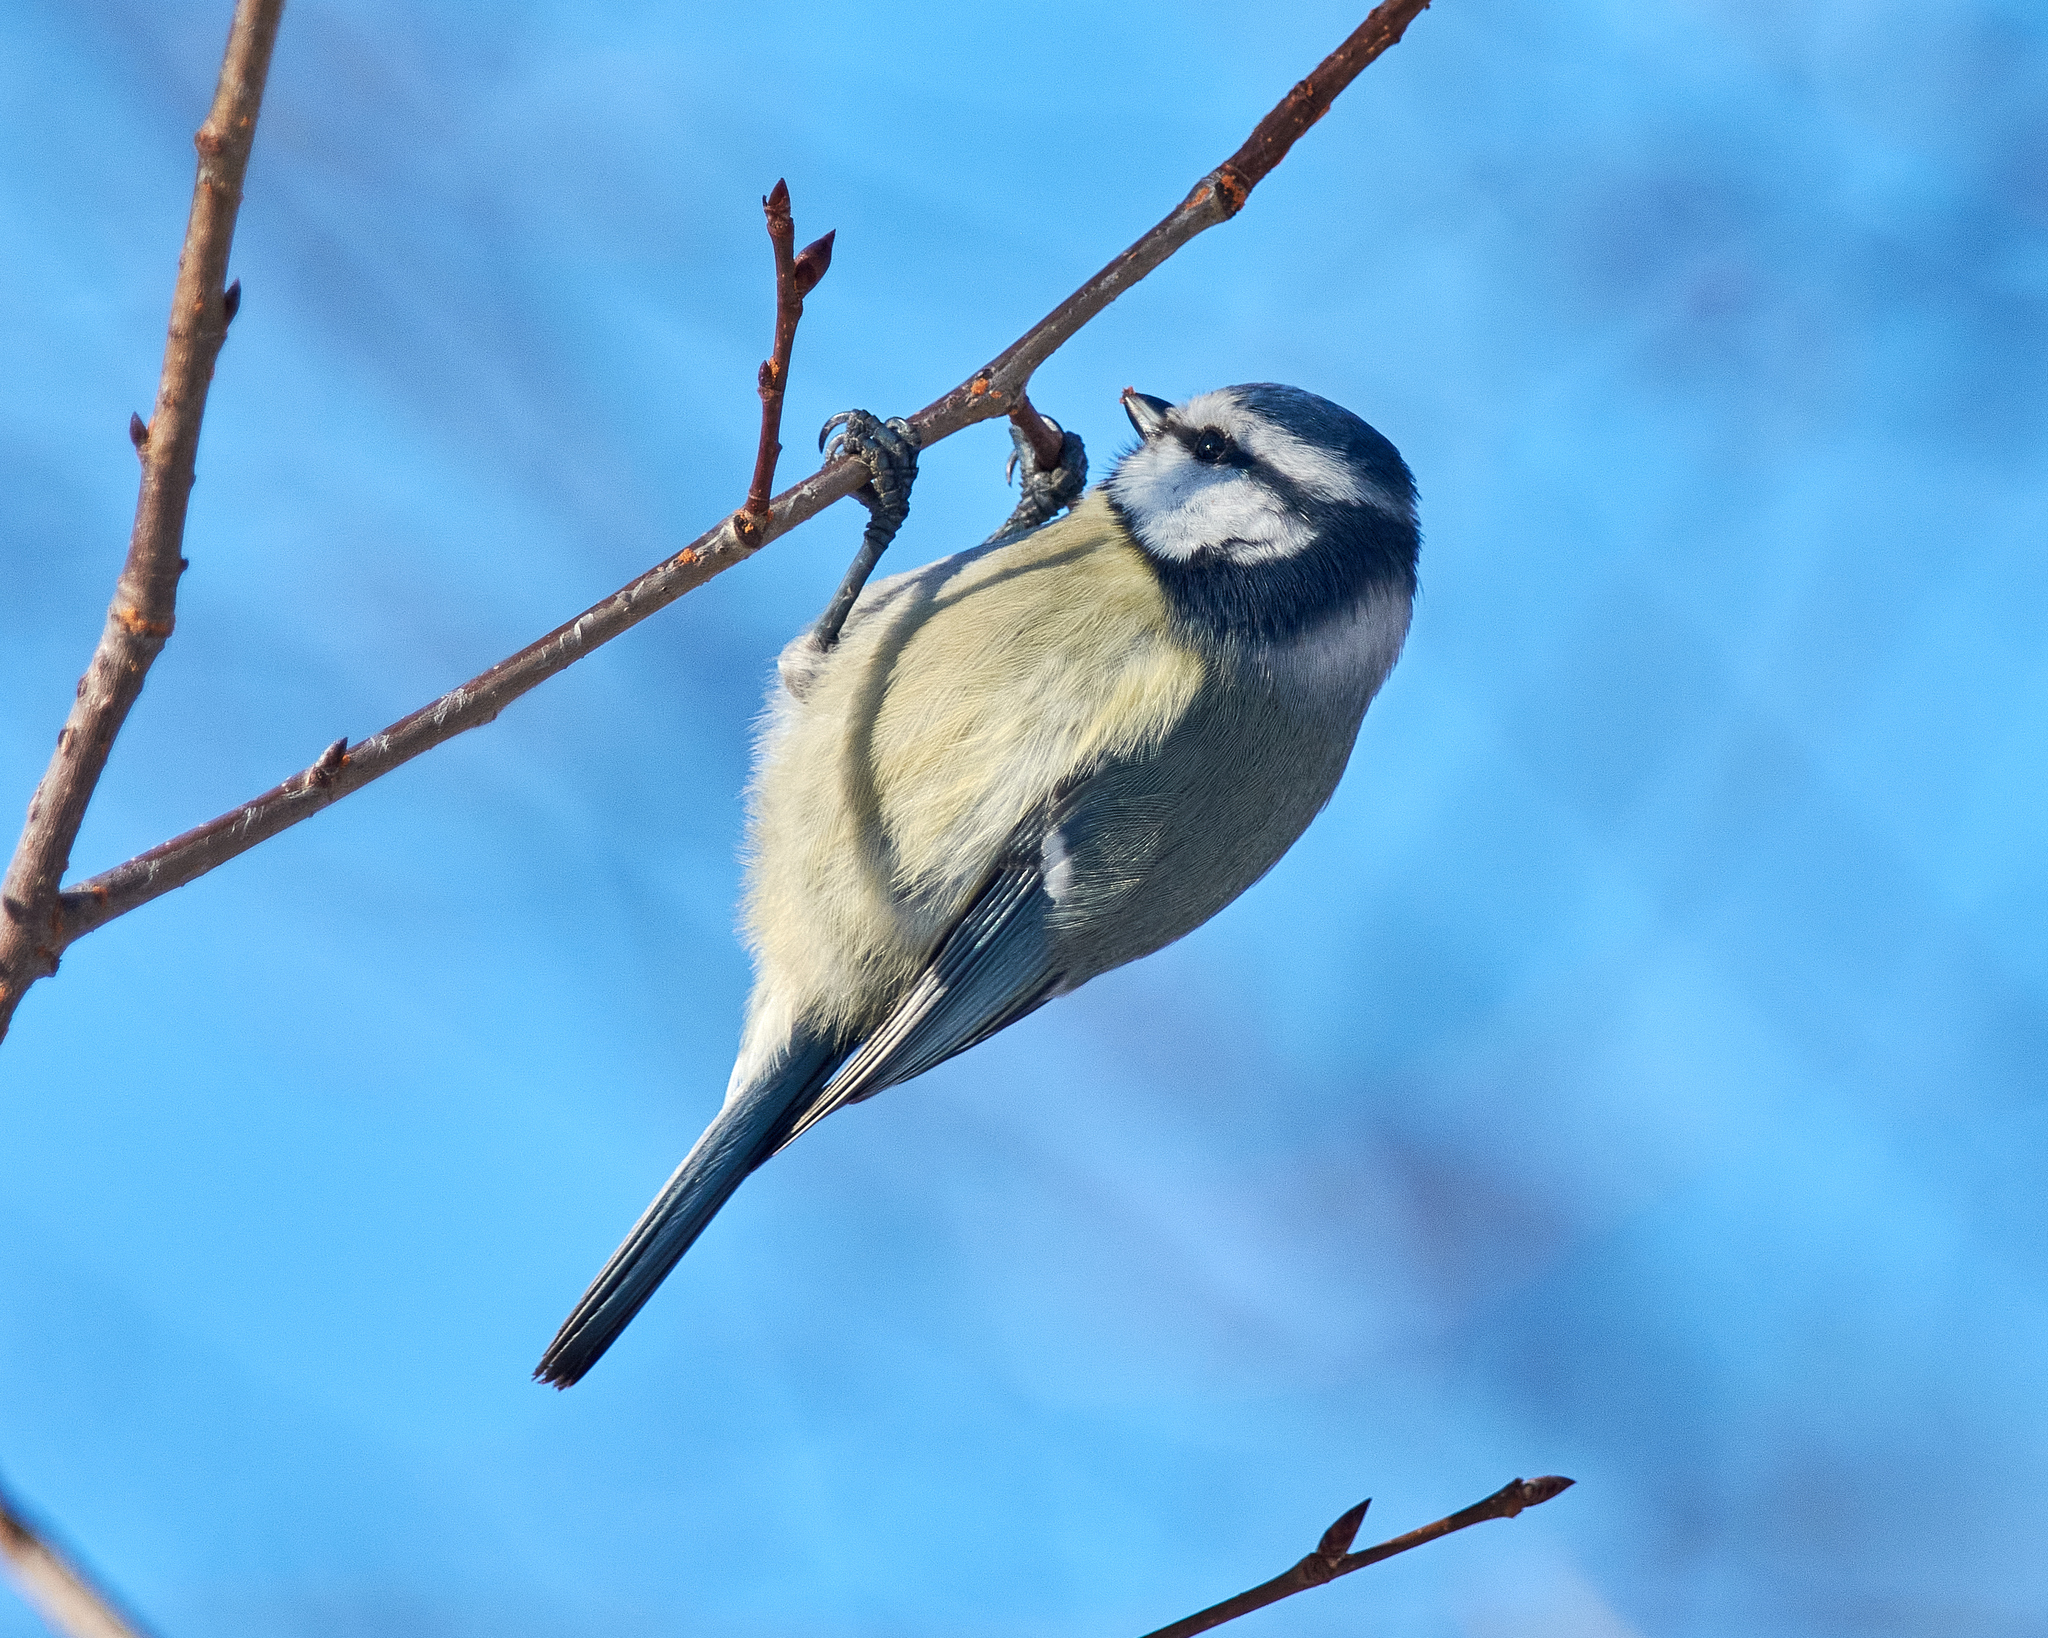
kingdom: Animalia
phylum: Chordata
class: Aves
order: Passeriformes
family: Paridae
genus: Cyanistes
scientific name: Cyanistes caeruleus
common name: Eurasian blue tit
